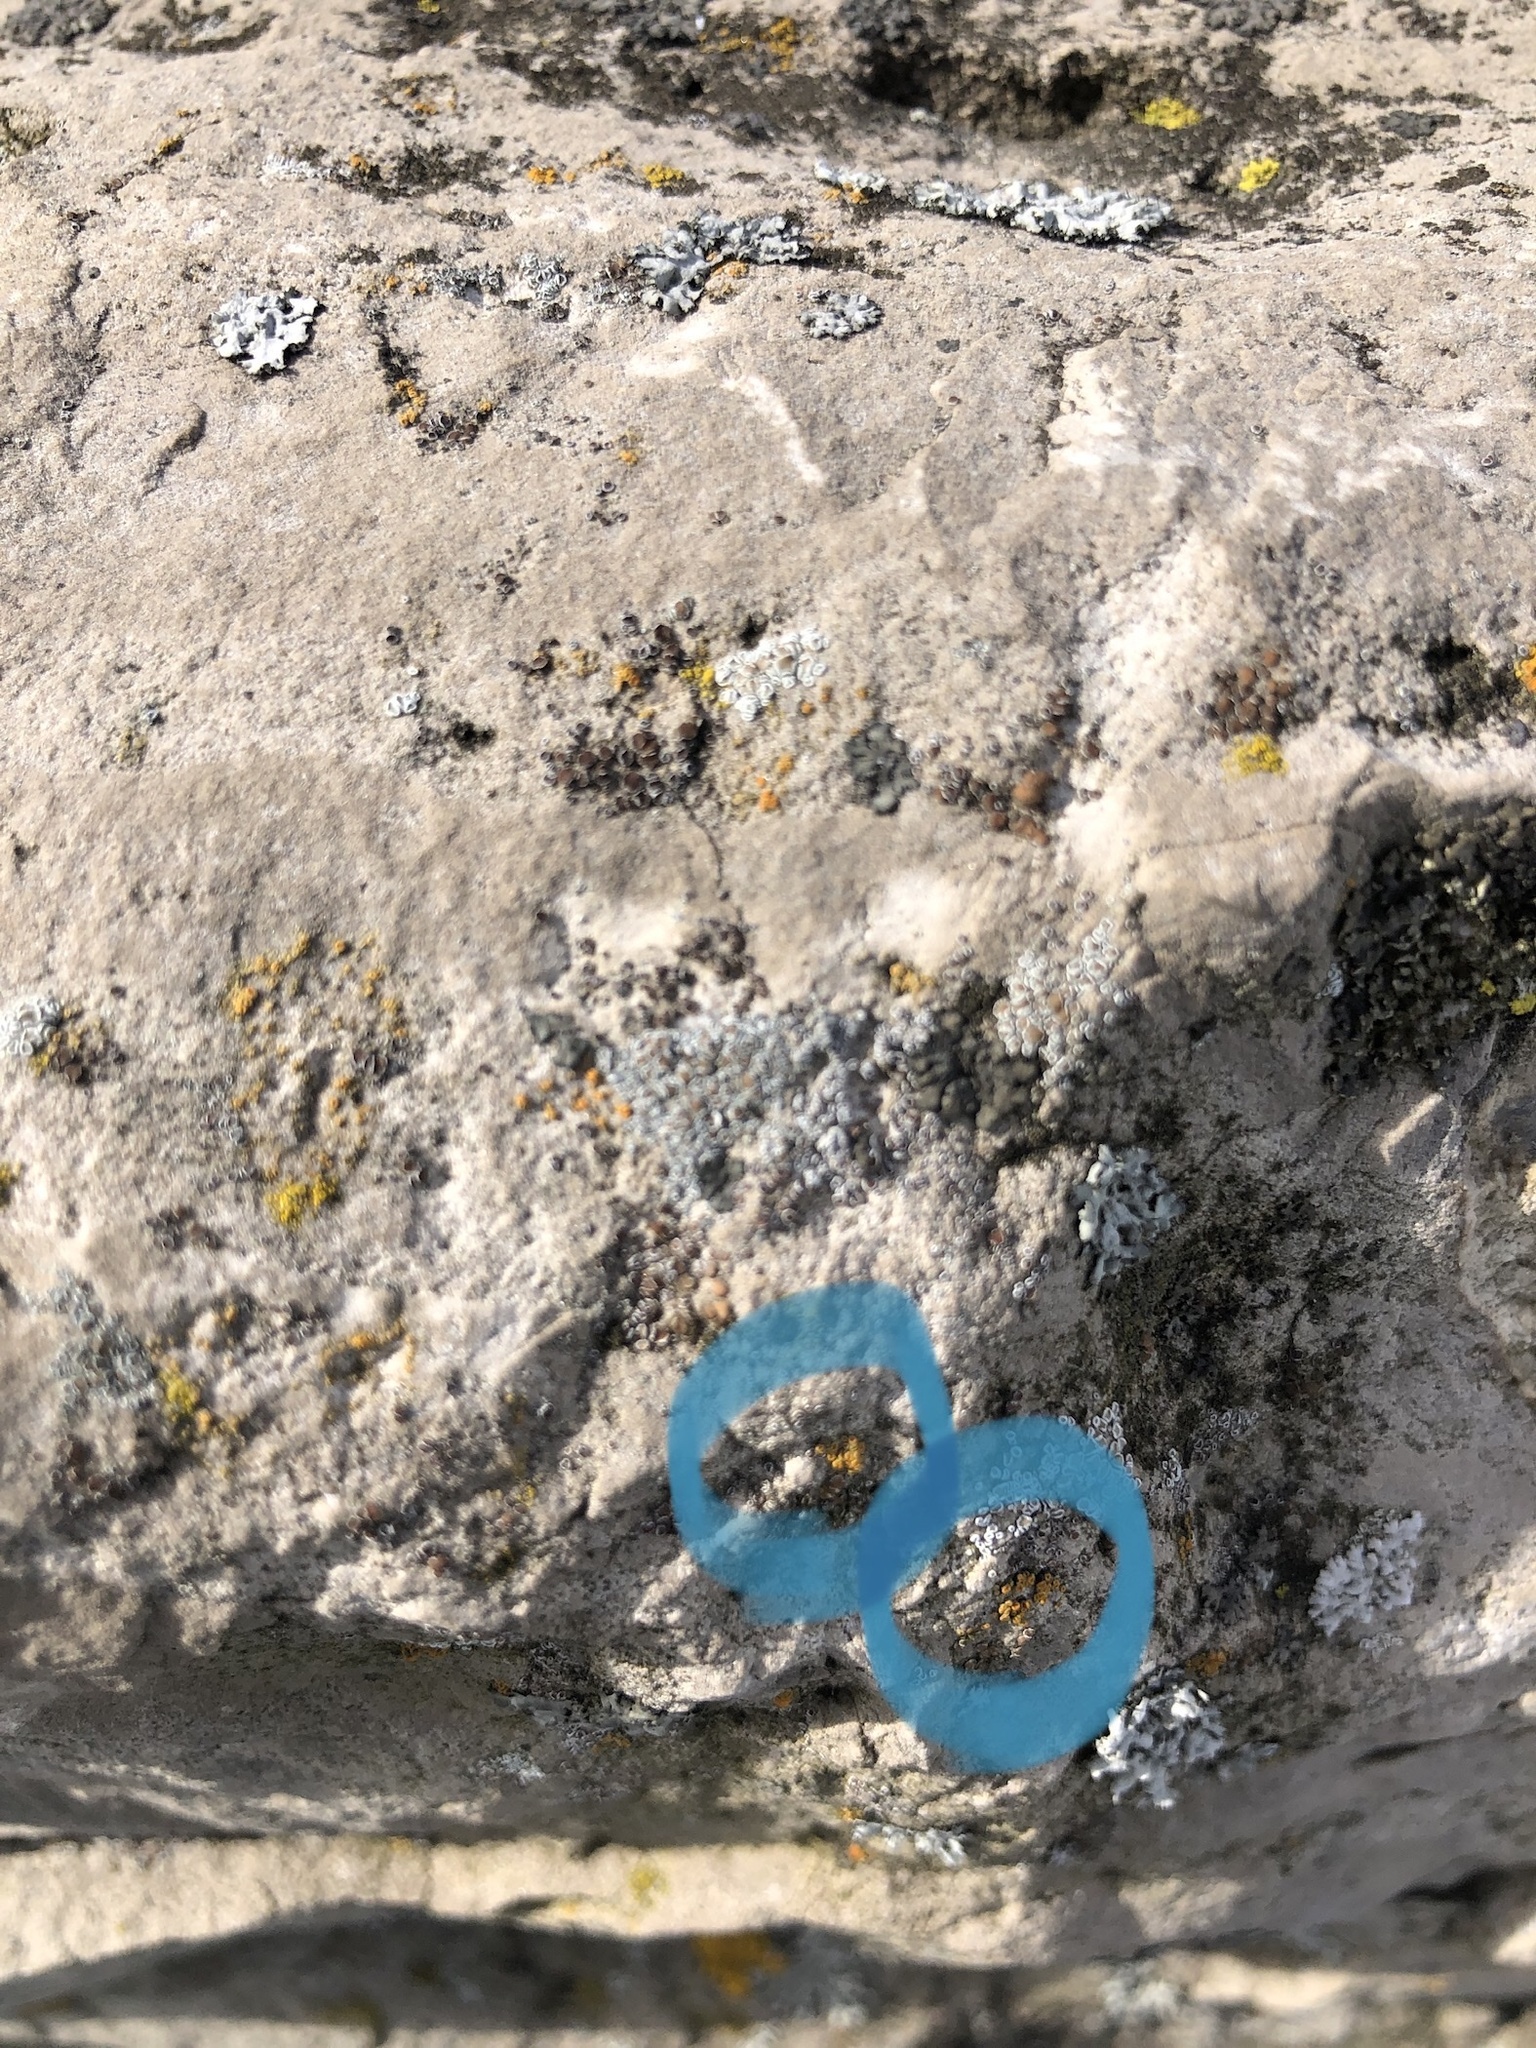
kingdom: Fungi
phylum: Ascomycota
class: Lecanoromycetes
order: Teloschistales
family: Teloschistaceae
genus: Athallia
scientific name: Athallia pyracea
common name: Flaming firedot lichen
